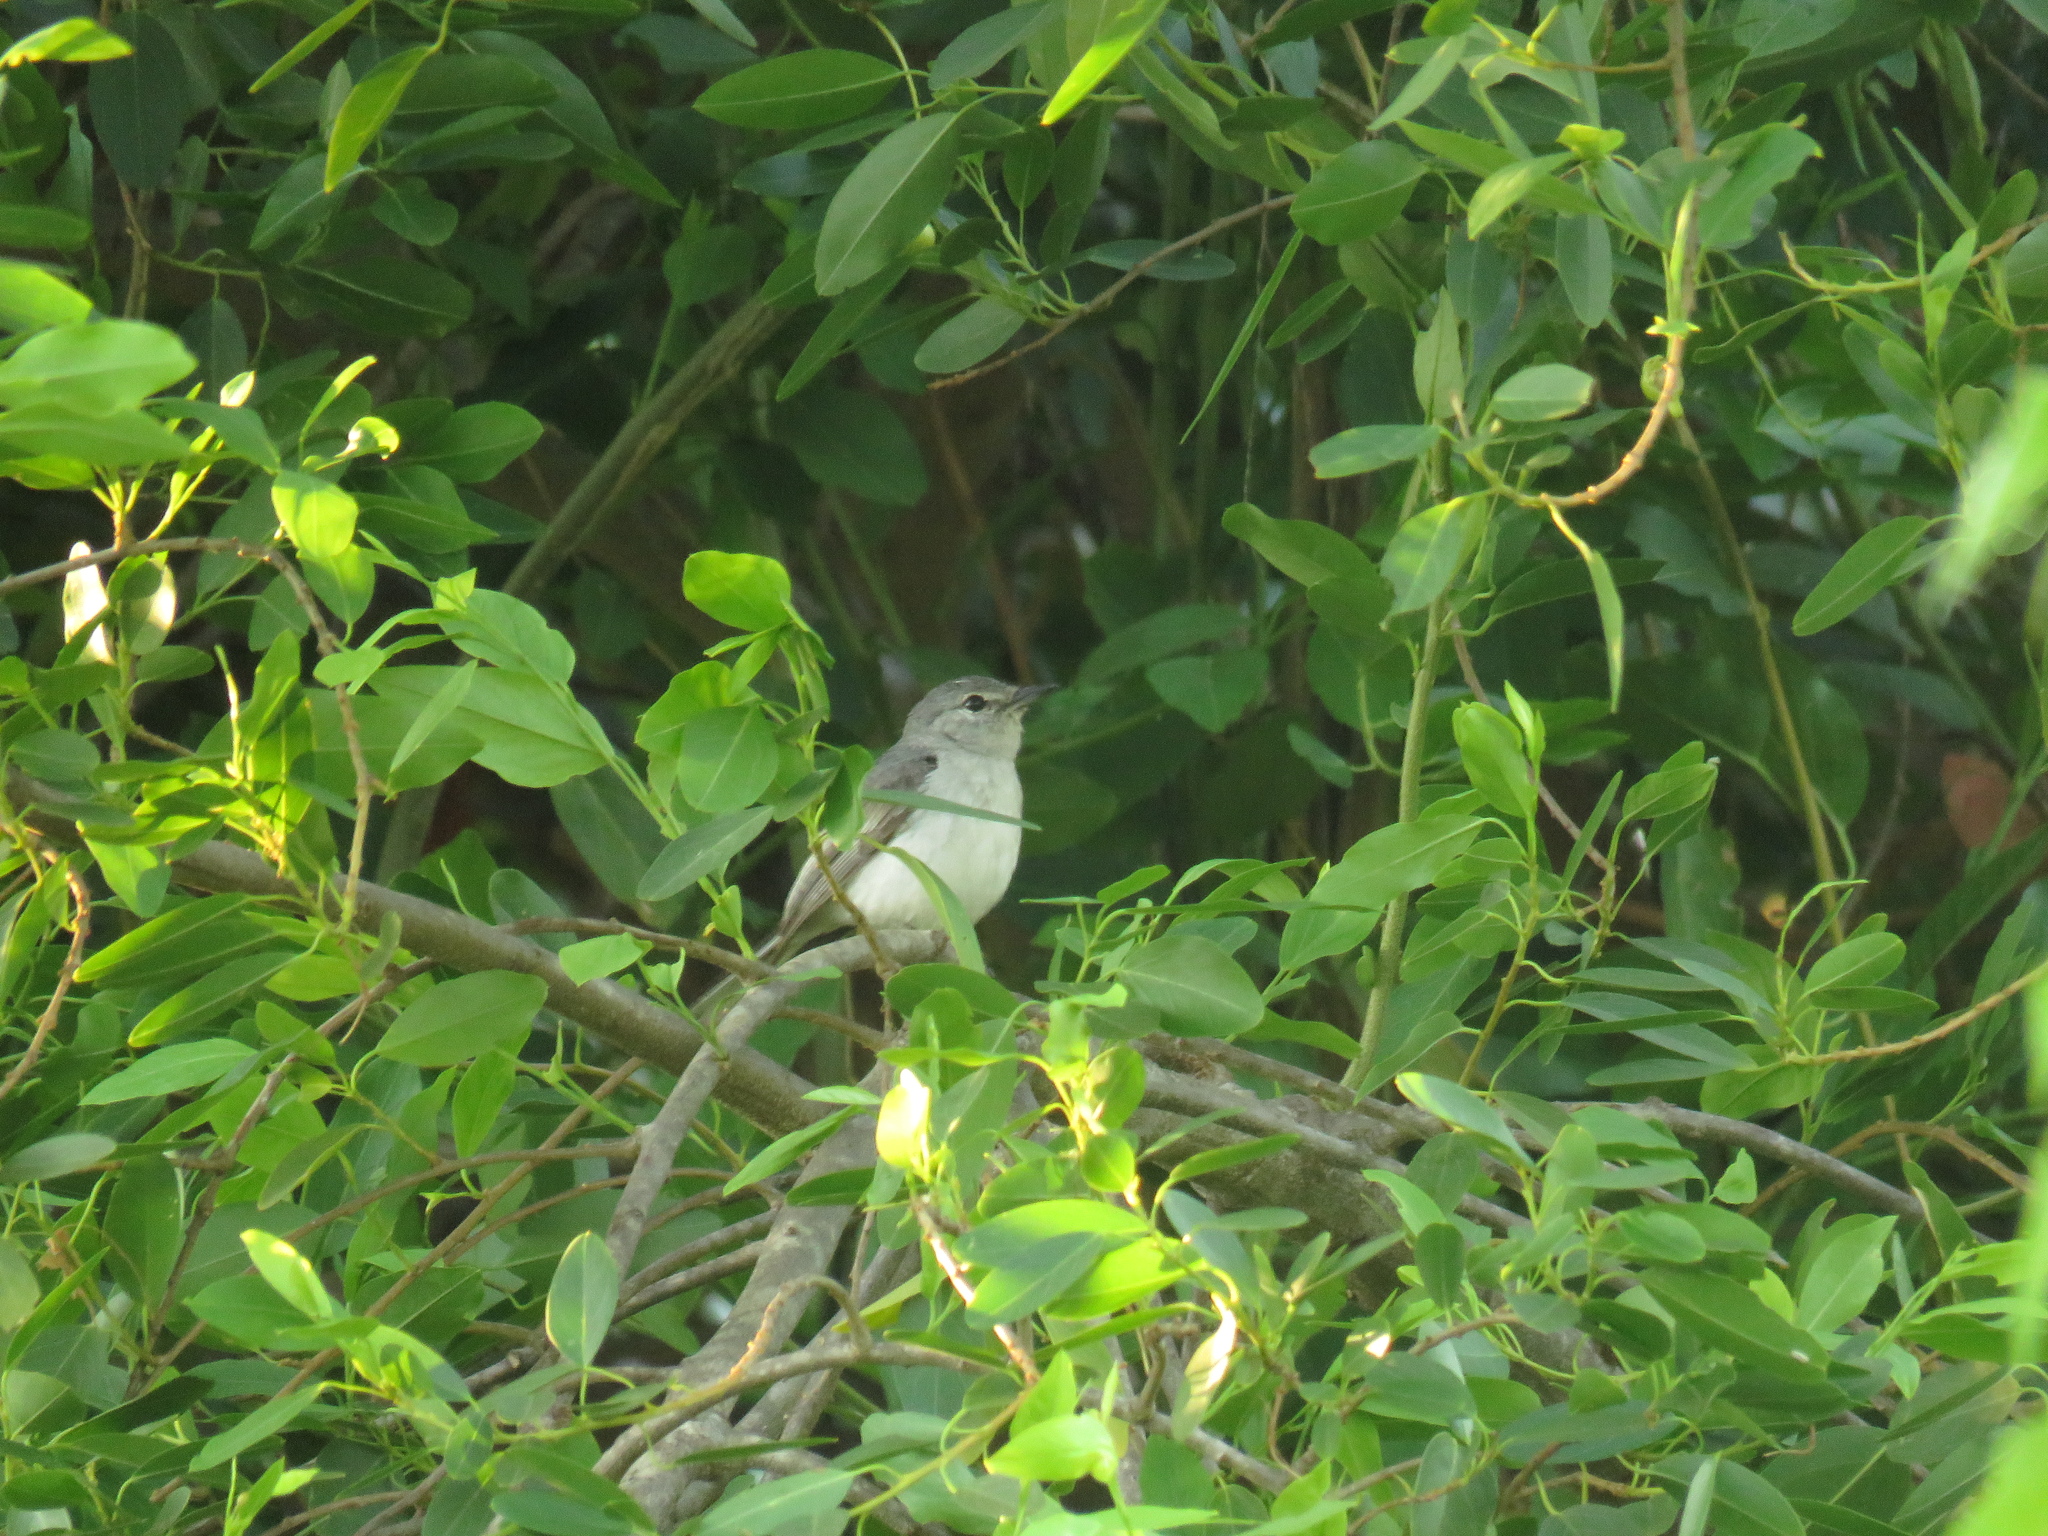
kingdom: Animalia
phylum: Chordata
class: Aves
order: Passeriformes
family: Muscicapidae
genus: Myioparus
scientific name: Myioparus plumbeus
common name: Grey tit-flycatcher
